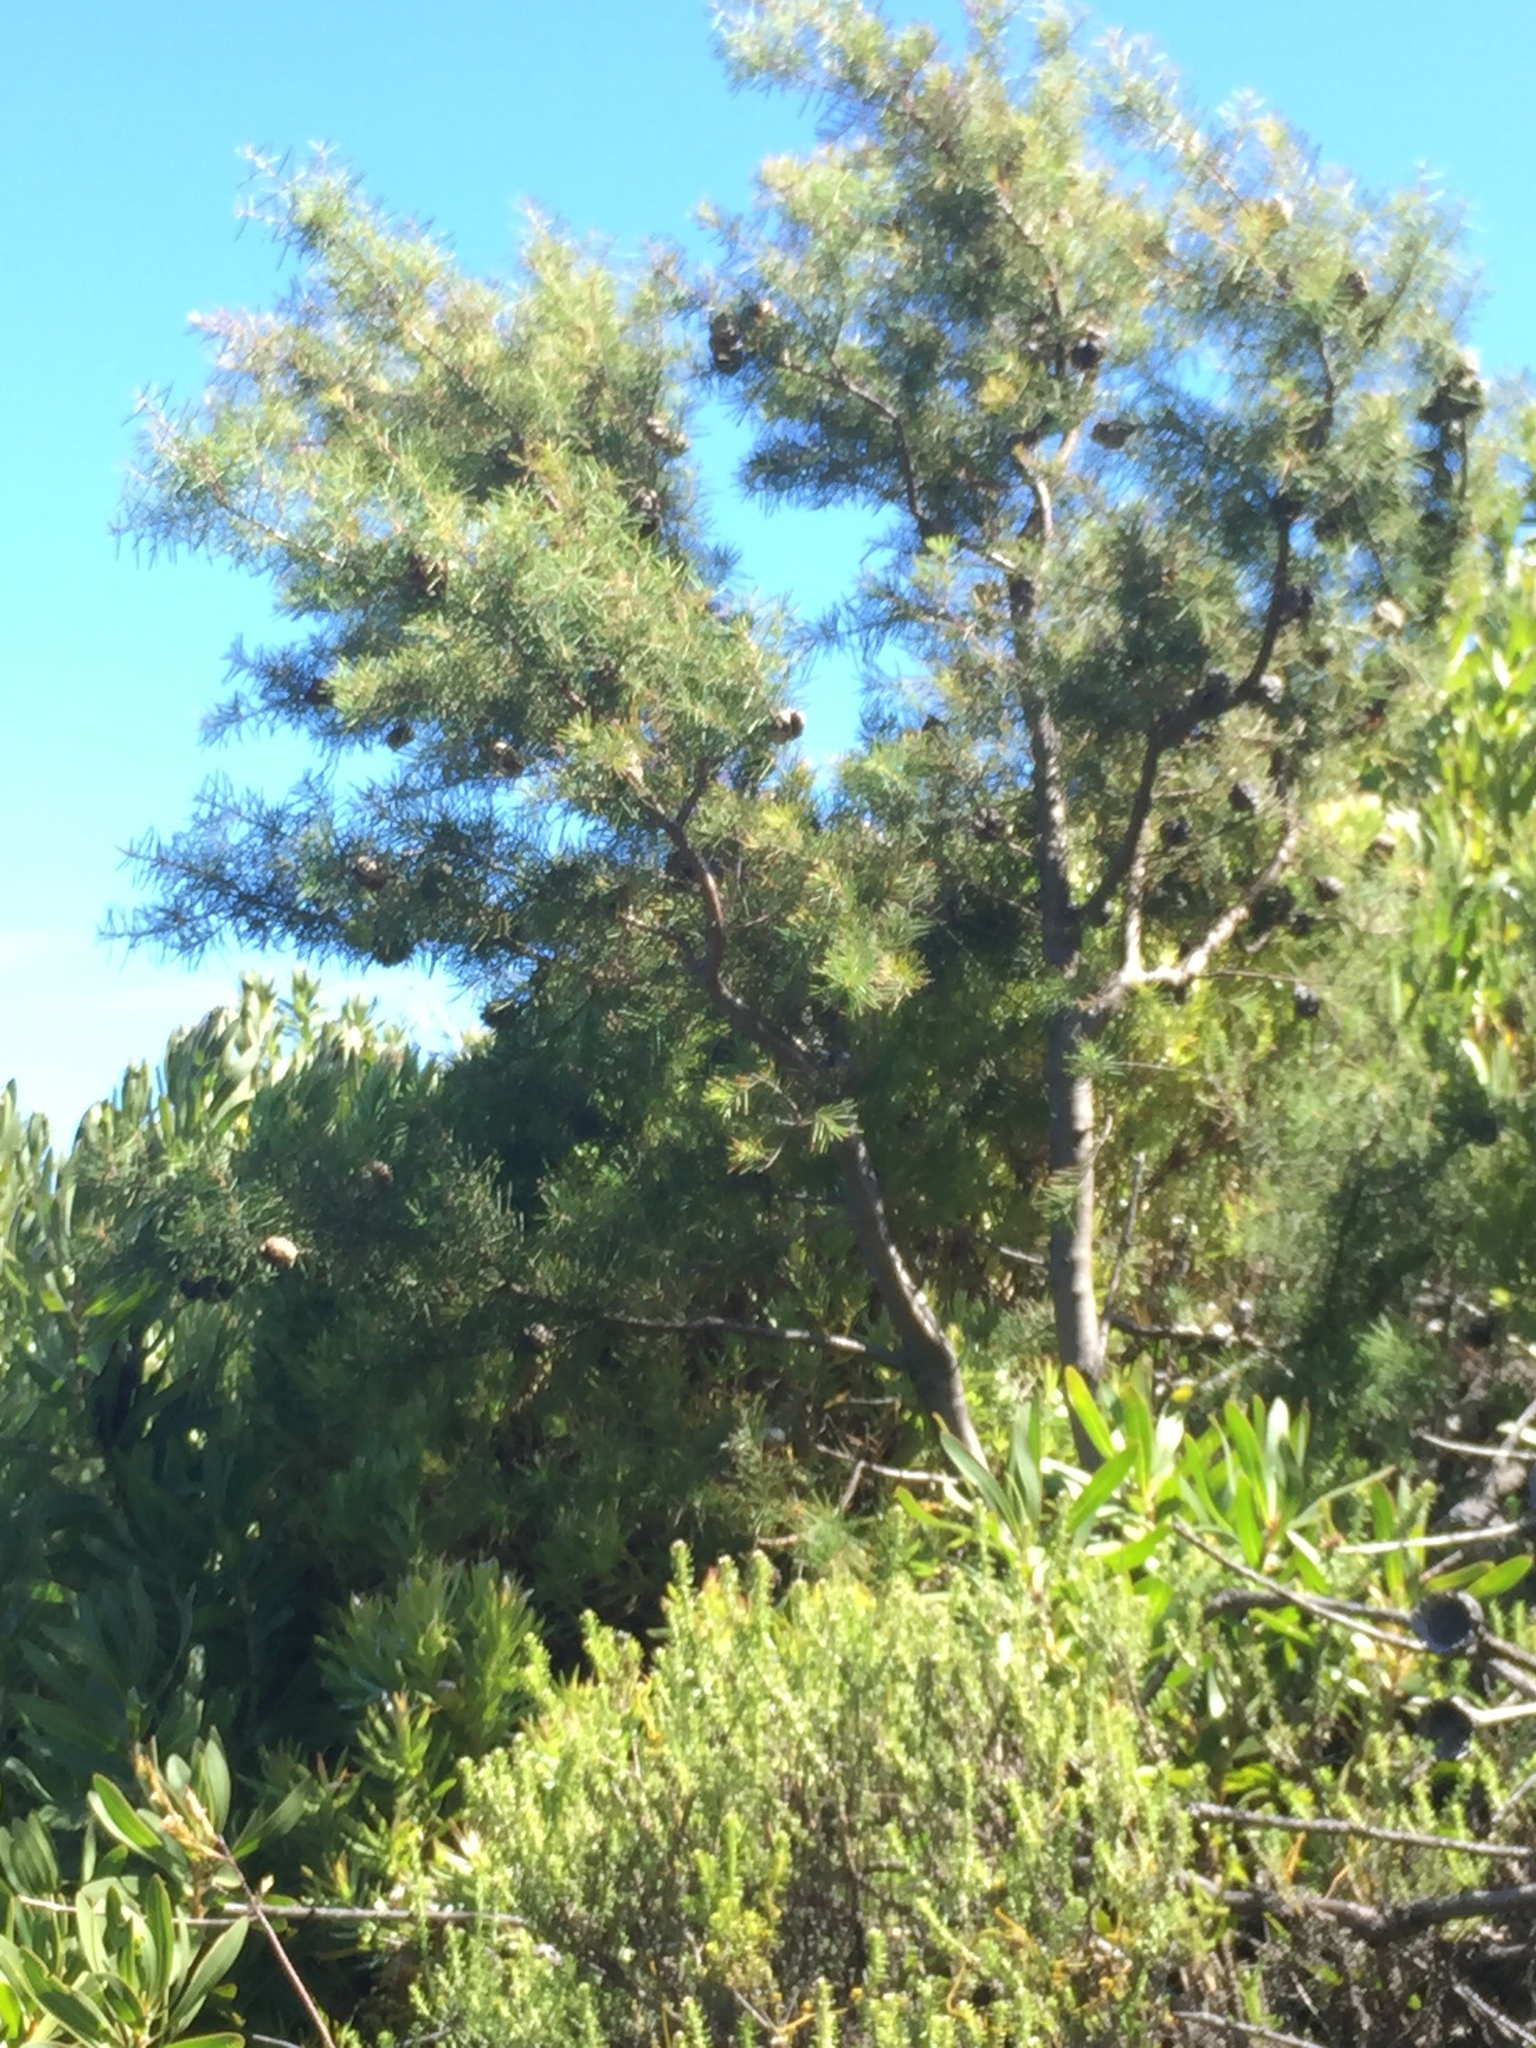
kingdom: Plantae
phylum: Tracheophyta
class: Magnoliopsida
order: Proteales
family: Proteaceae
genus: Hakea
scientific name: Hakea sericea
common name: Needle bush
